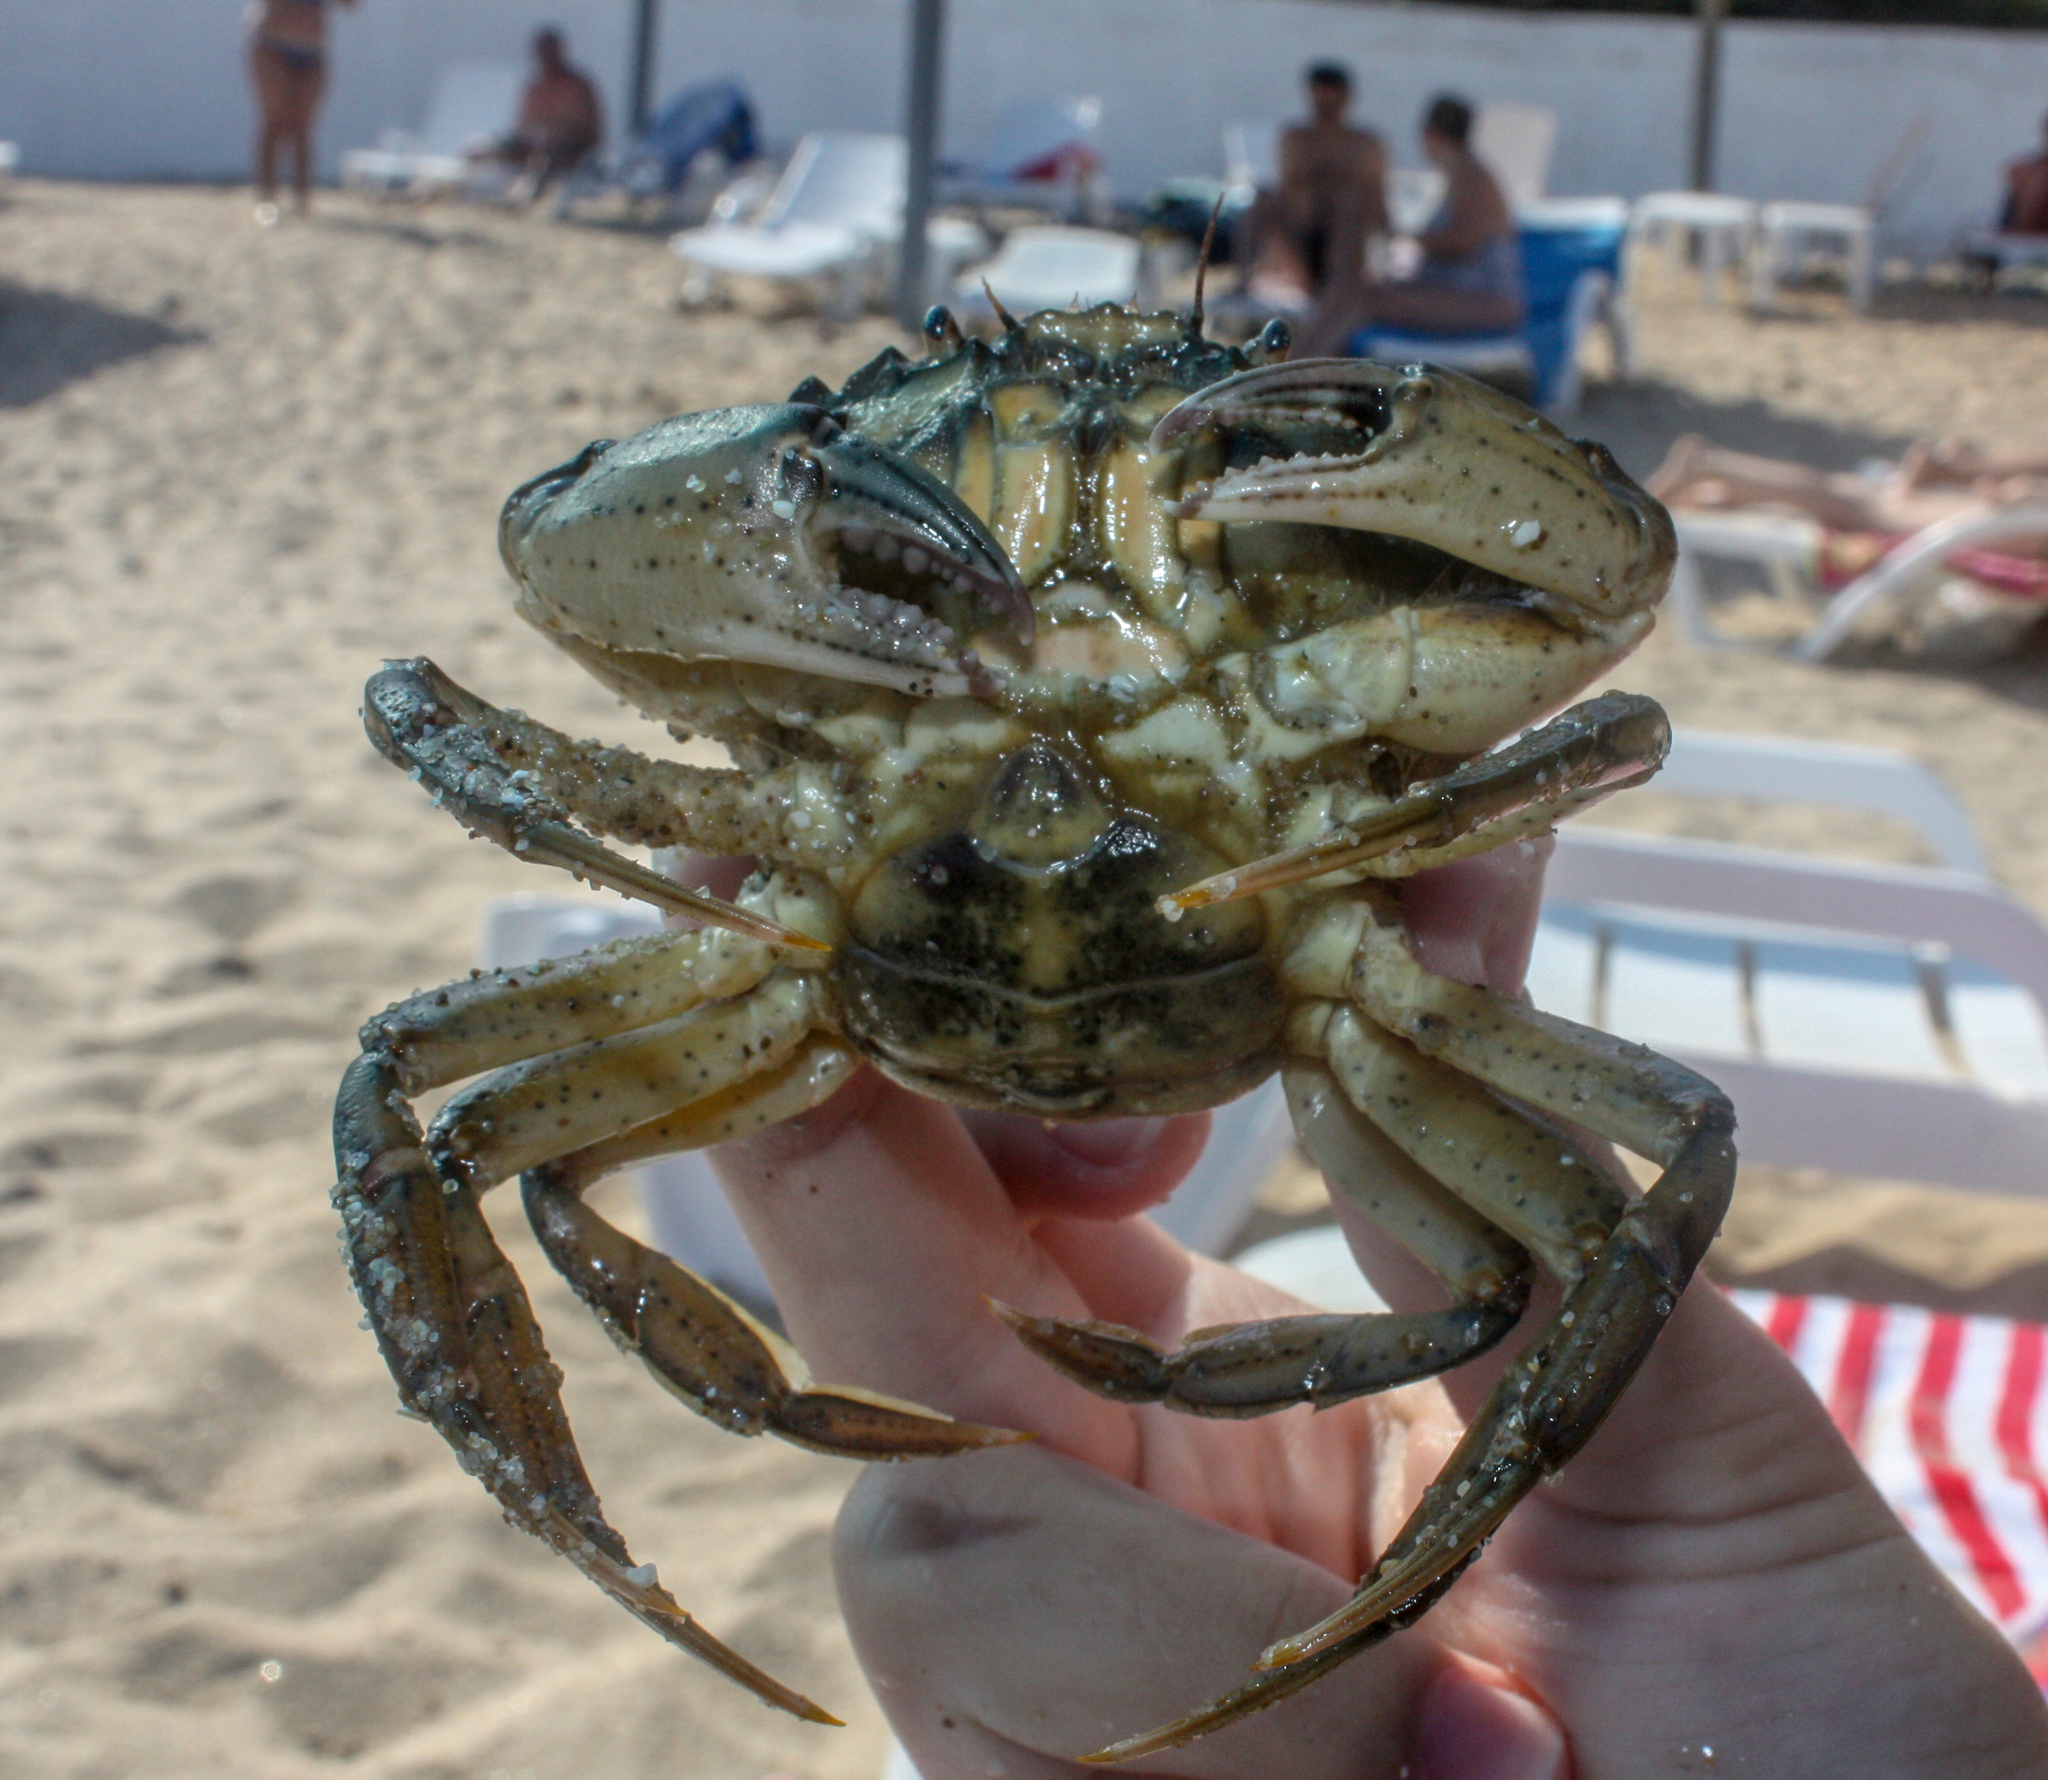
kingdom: Animalia
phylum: Arthropoda
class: Malacostraca
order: Decapoda
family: Carcinidae
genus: Carcinus
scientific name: Carcinus aestuarii
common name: Mediterranean green crab
